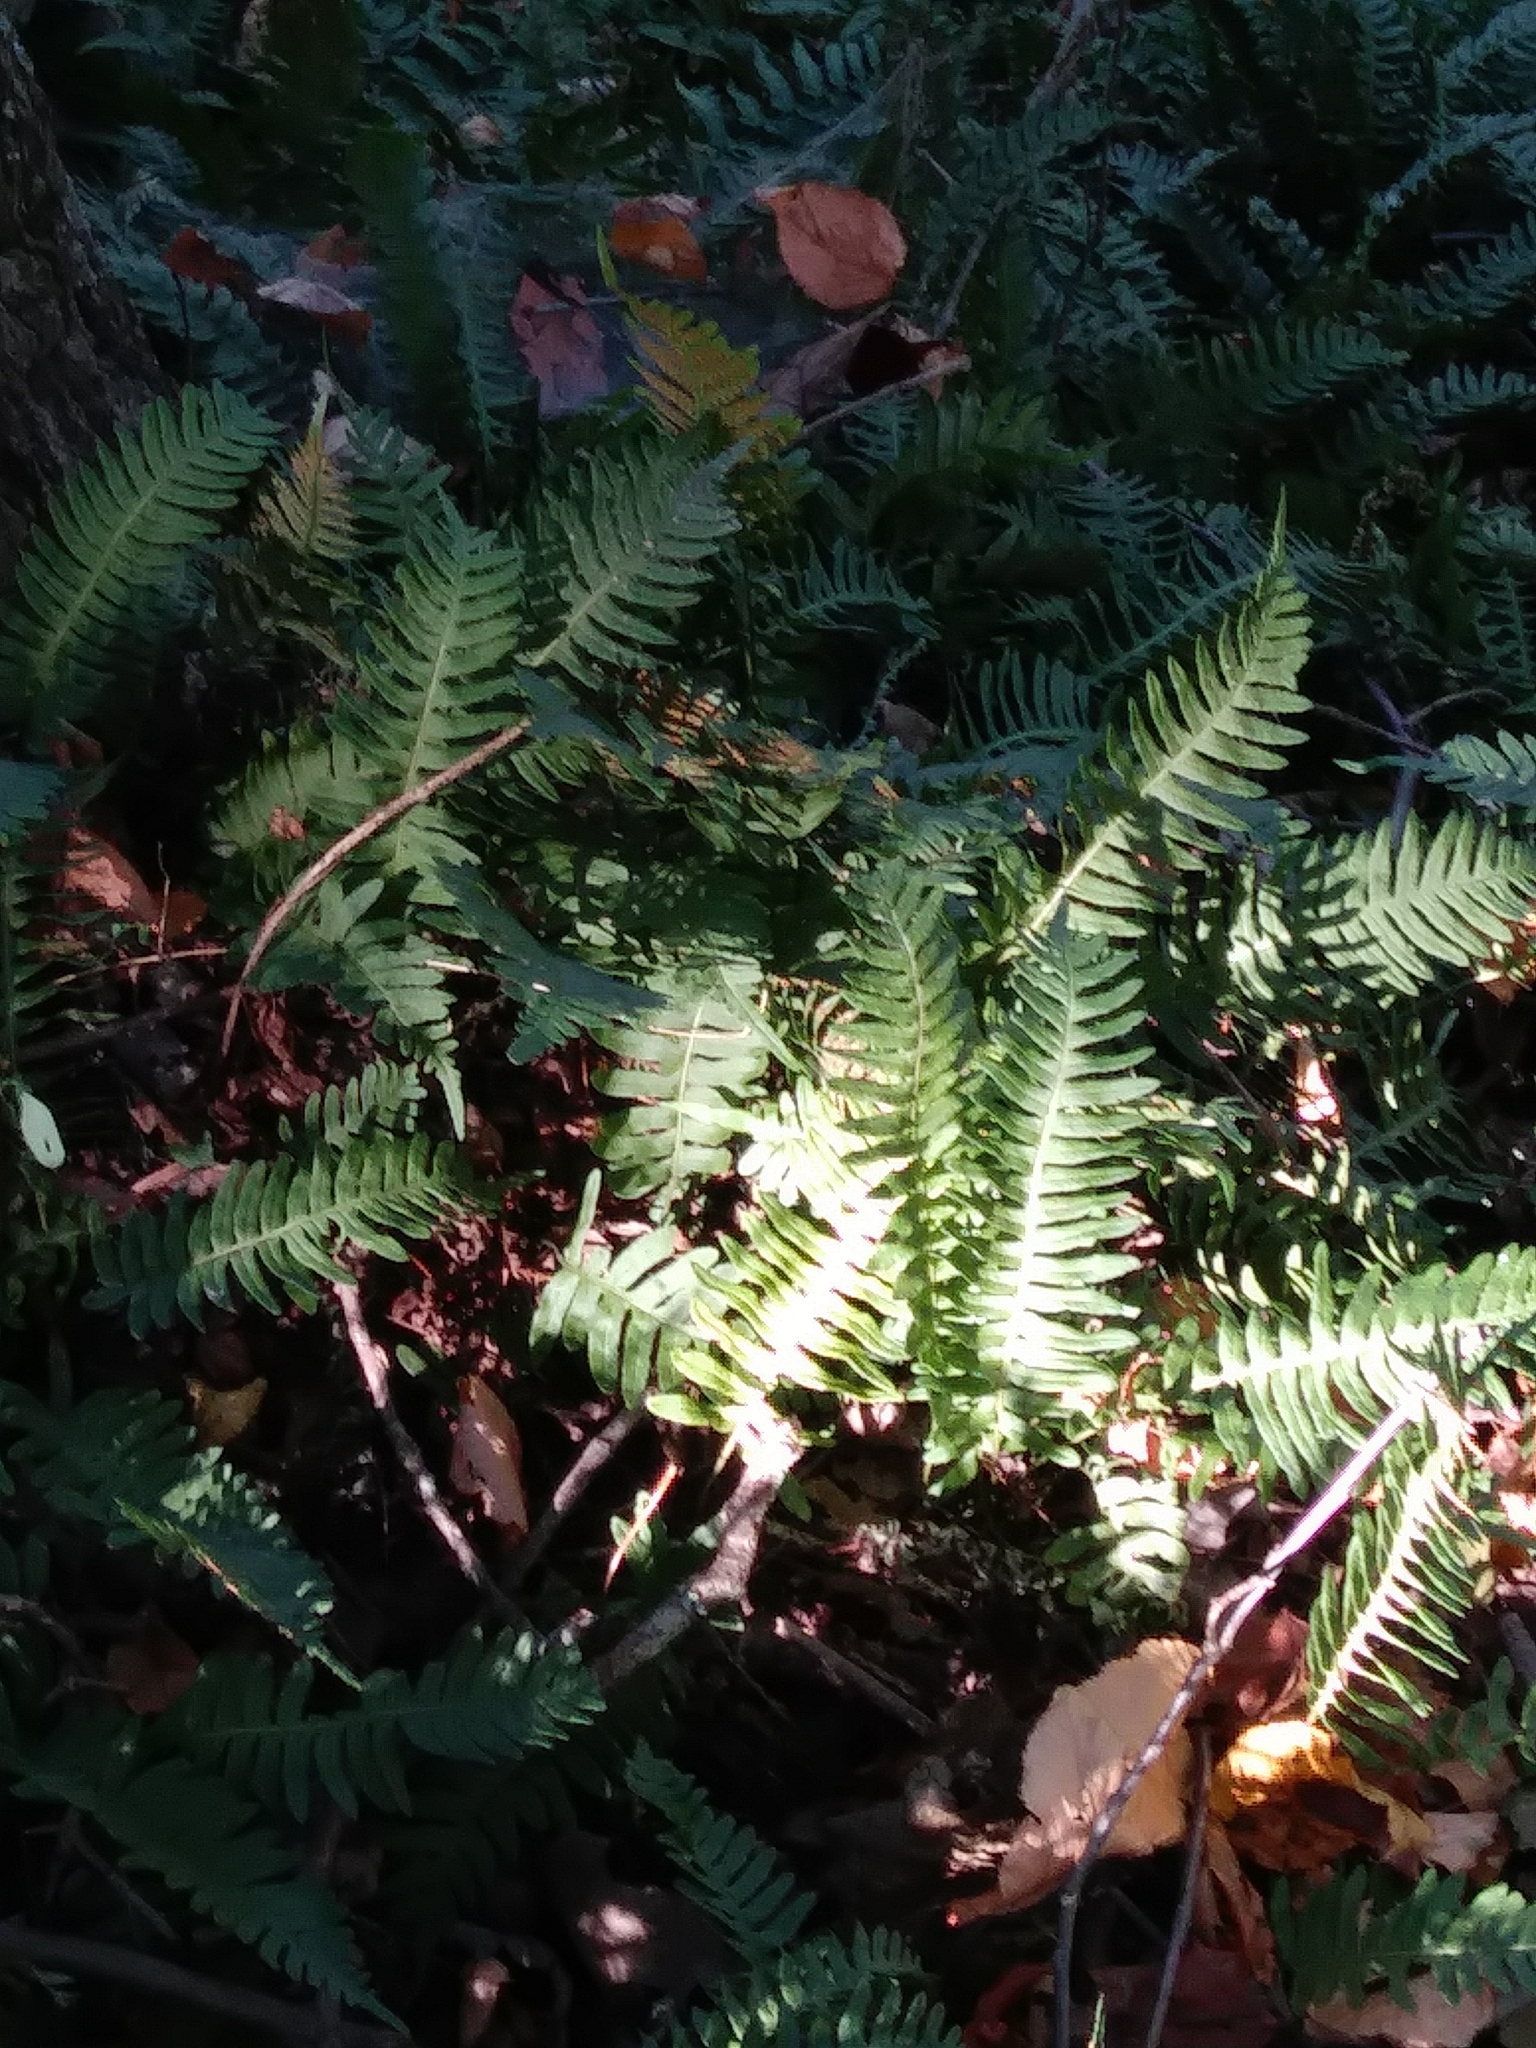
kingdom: Plantae
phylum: Tracheophyta
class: Polypodiopsida
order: Polypodiales
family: Polypodiaceae
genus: Polypodium
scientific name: Polypodium virginianum
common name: American wall fern
